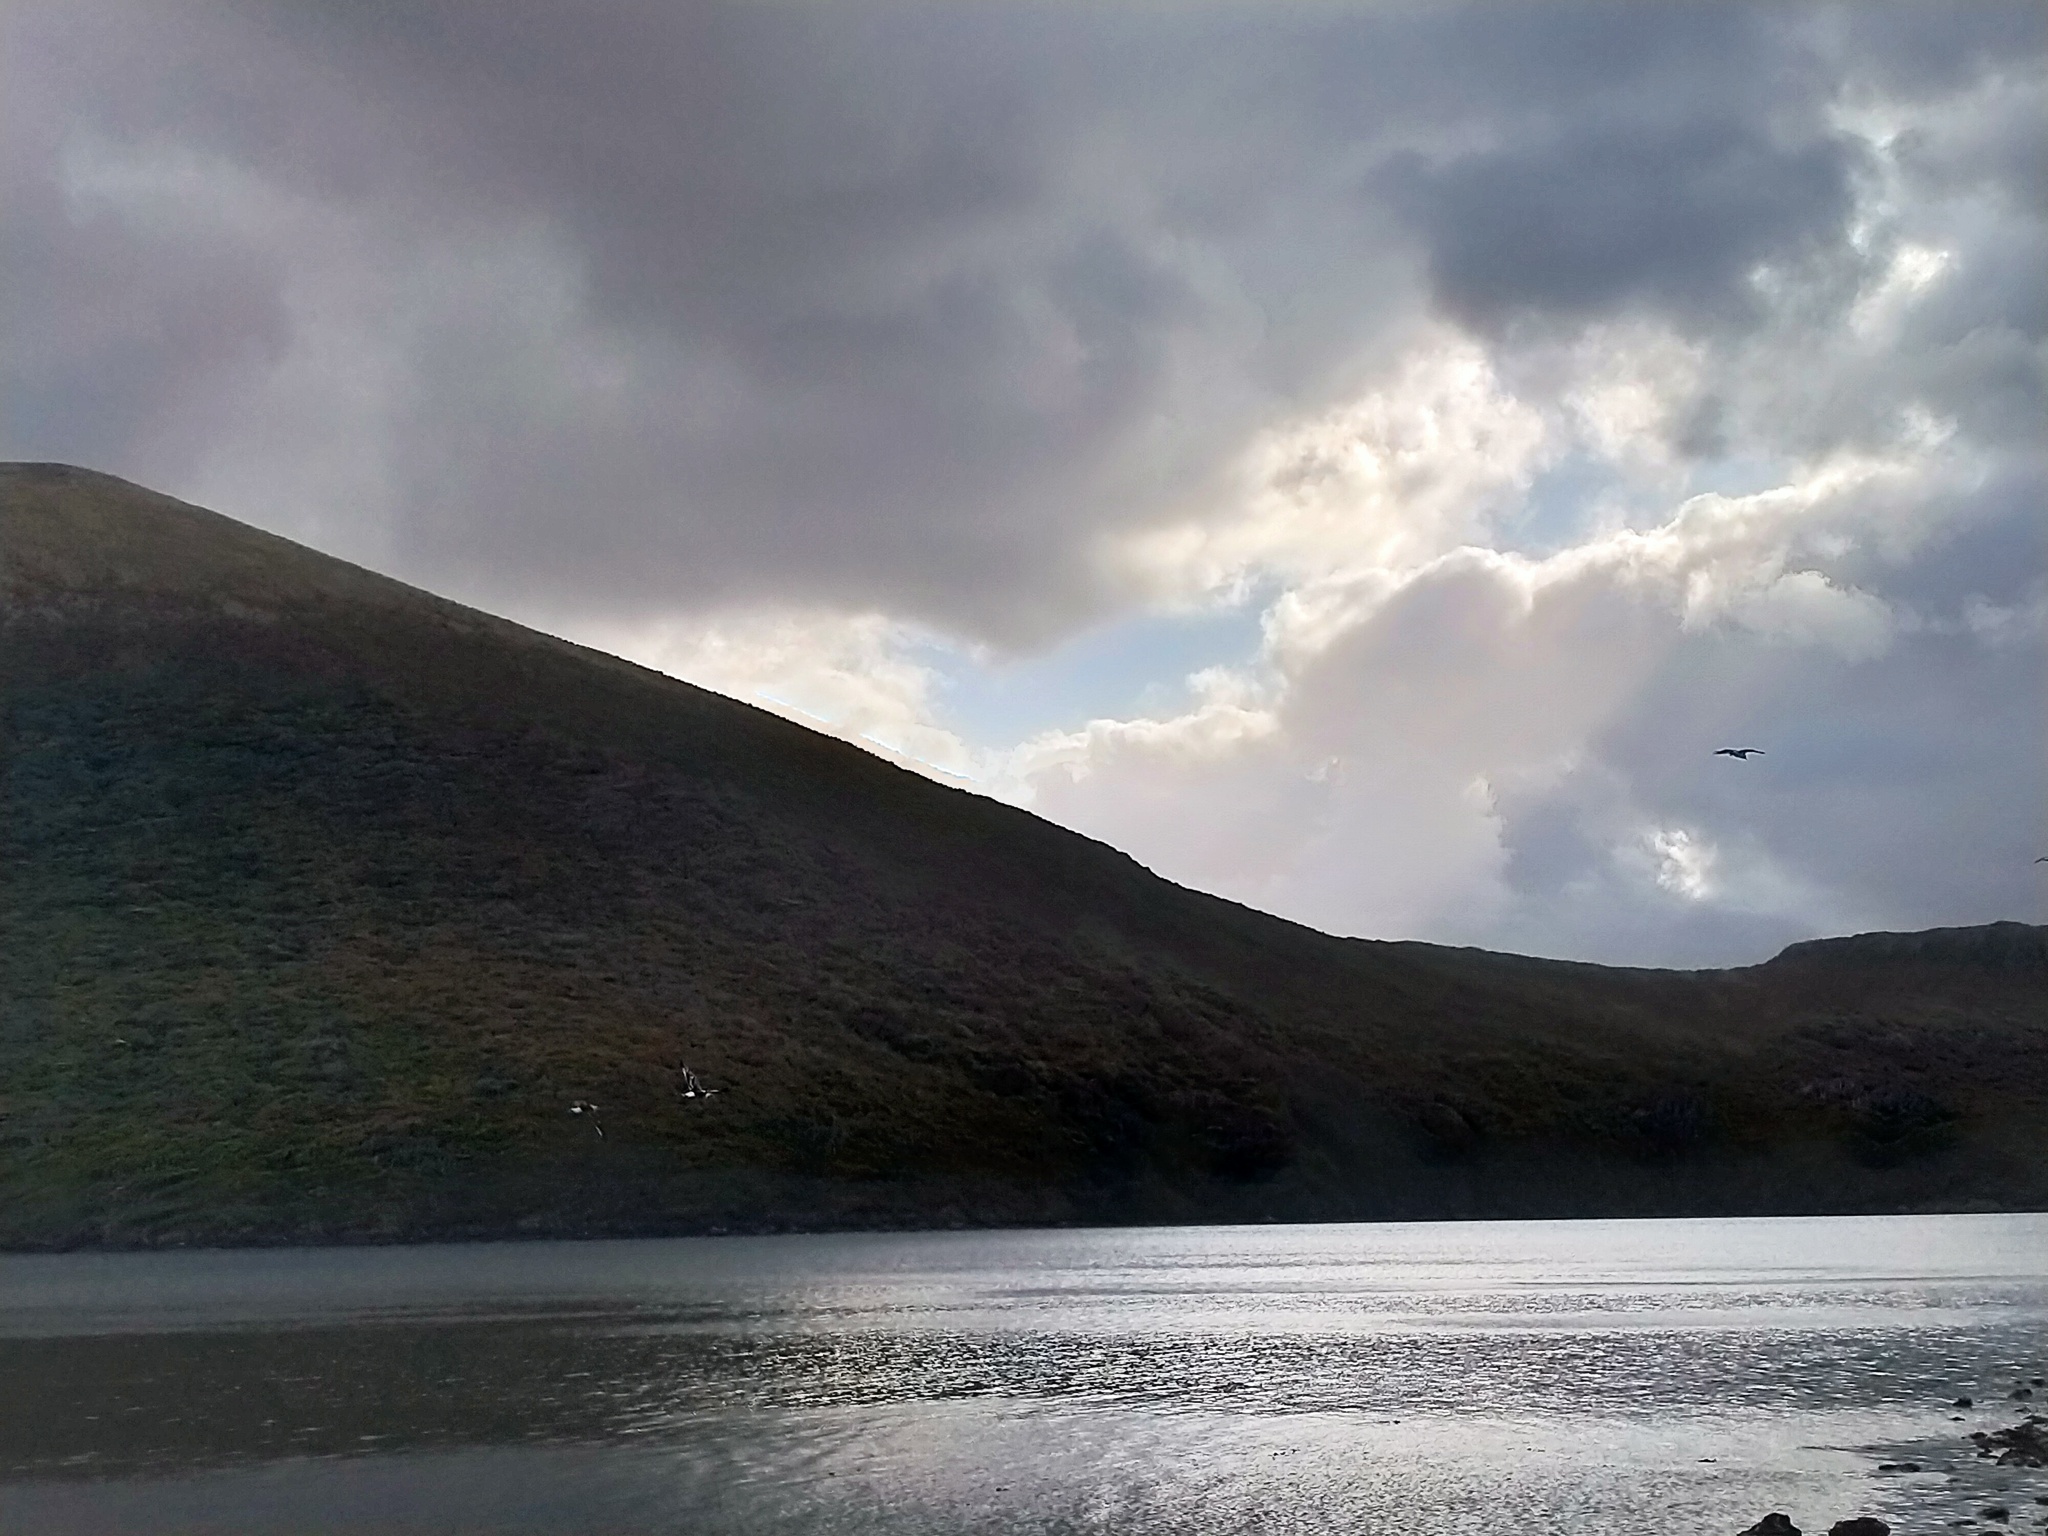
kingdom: Animalia
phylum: Chordata
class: Aves
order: Charadriiformes
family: Laridae
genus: Larus
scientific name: Larus dominicanus
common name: Kelp gull
